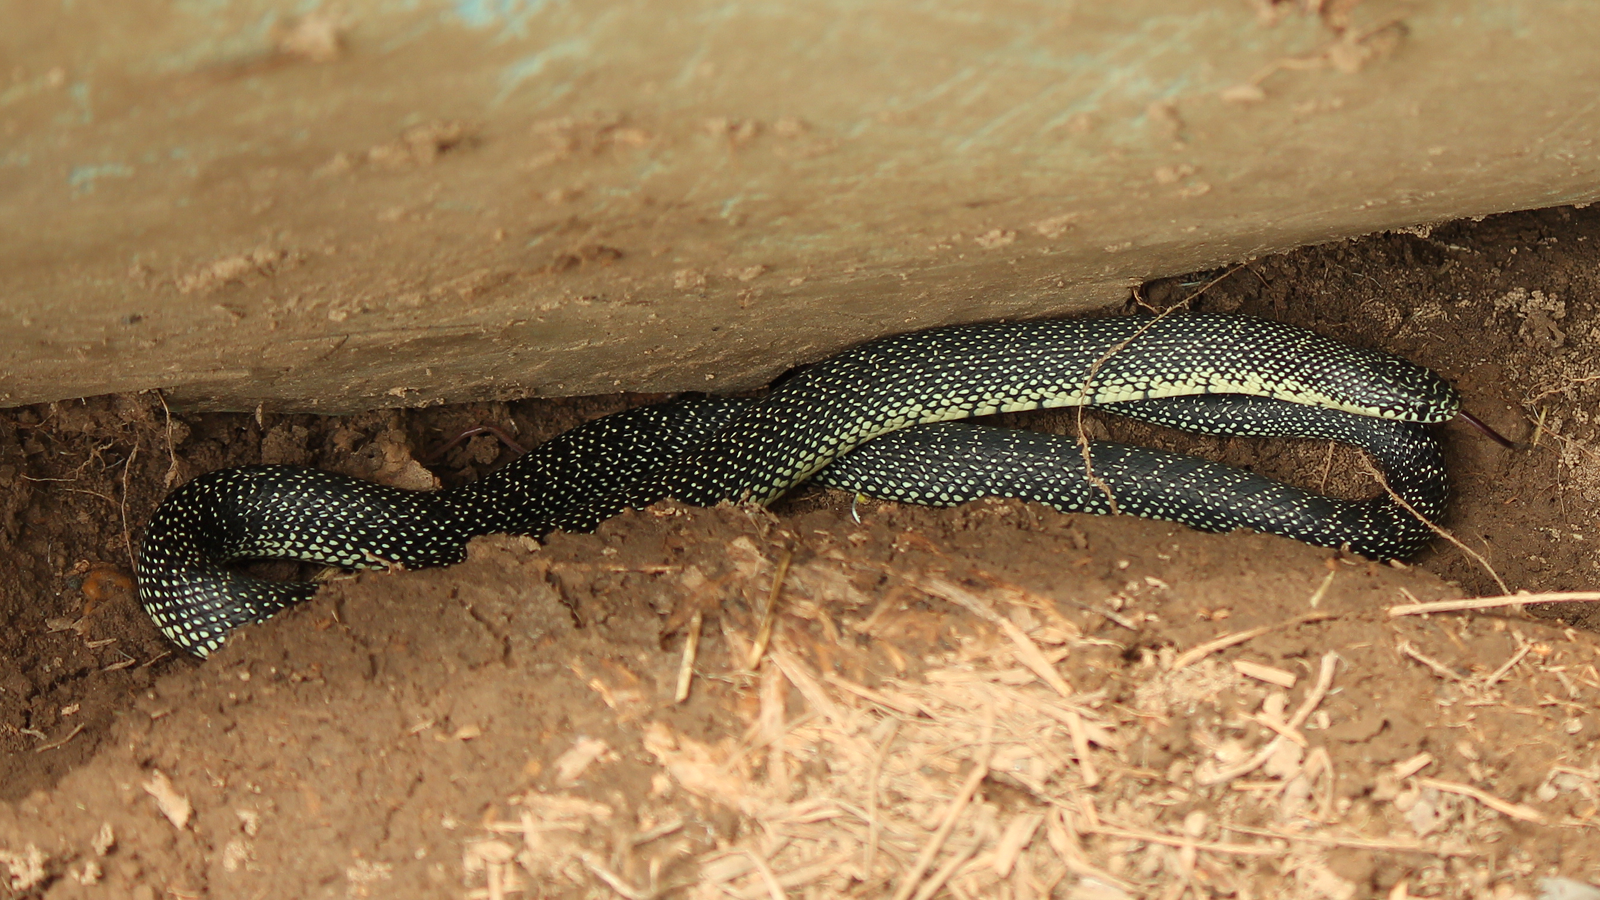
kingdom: Animalia
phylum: Chordata
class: Squamata
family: Colubridae
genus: Lampropeltis
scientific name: Lampropeltis holbrooki
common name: Speckled kingsnake
